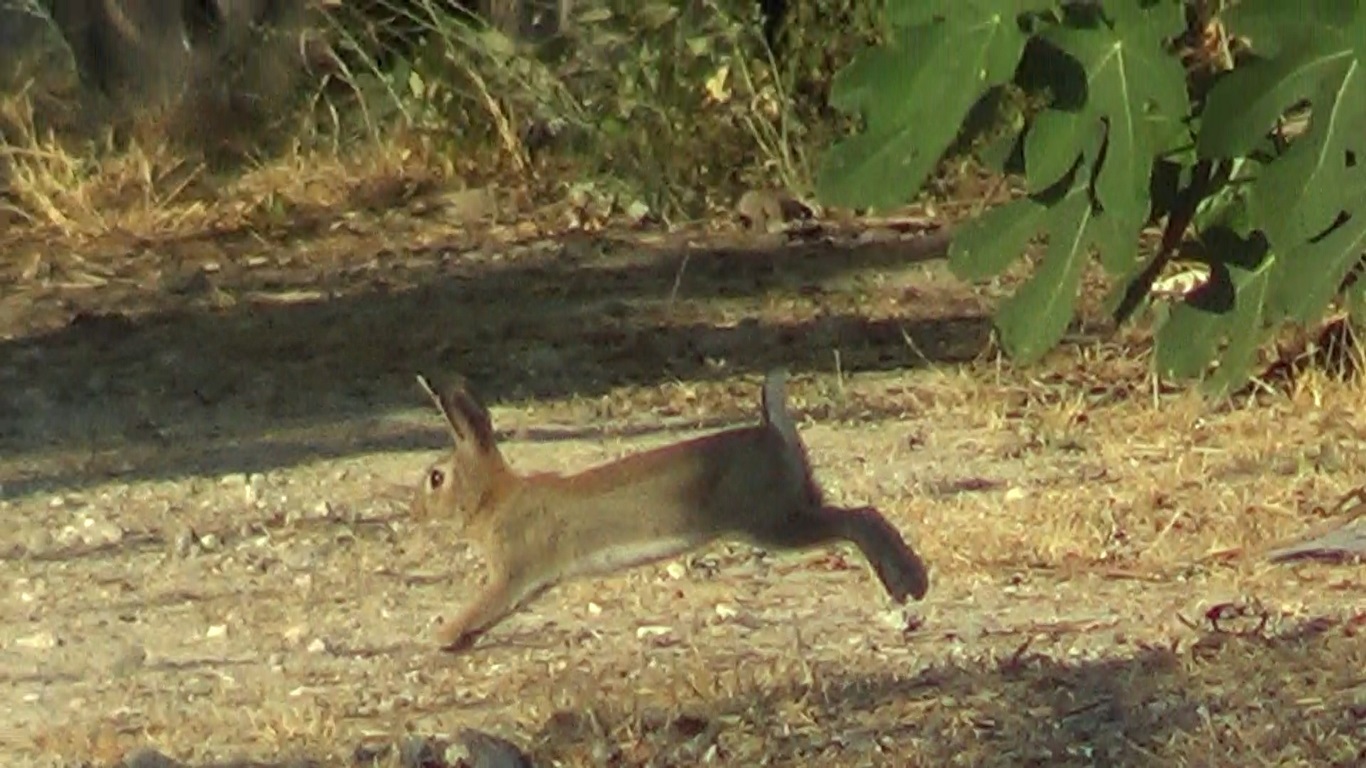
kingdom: Animalia
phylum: Chordata
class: Mammalia
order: Lagomorpha
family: Leporidae
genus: Oryctolagus
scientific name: Oryctolagus cuniculus
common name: European rabbit
